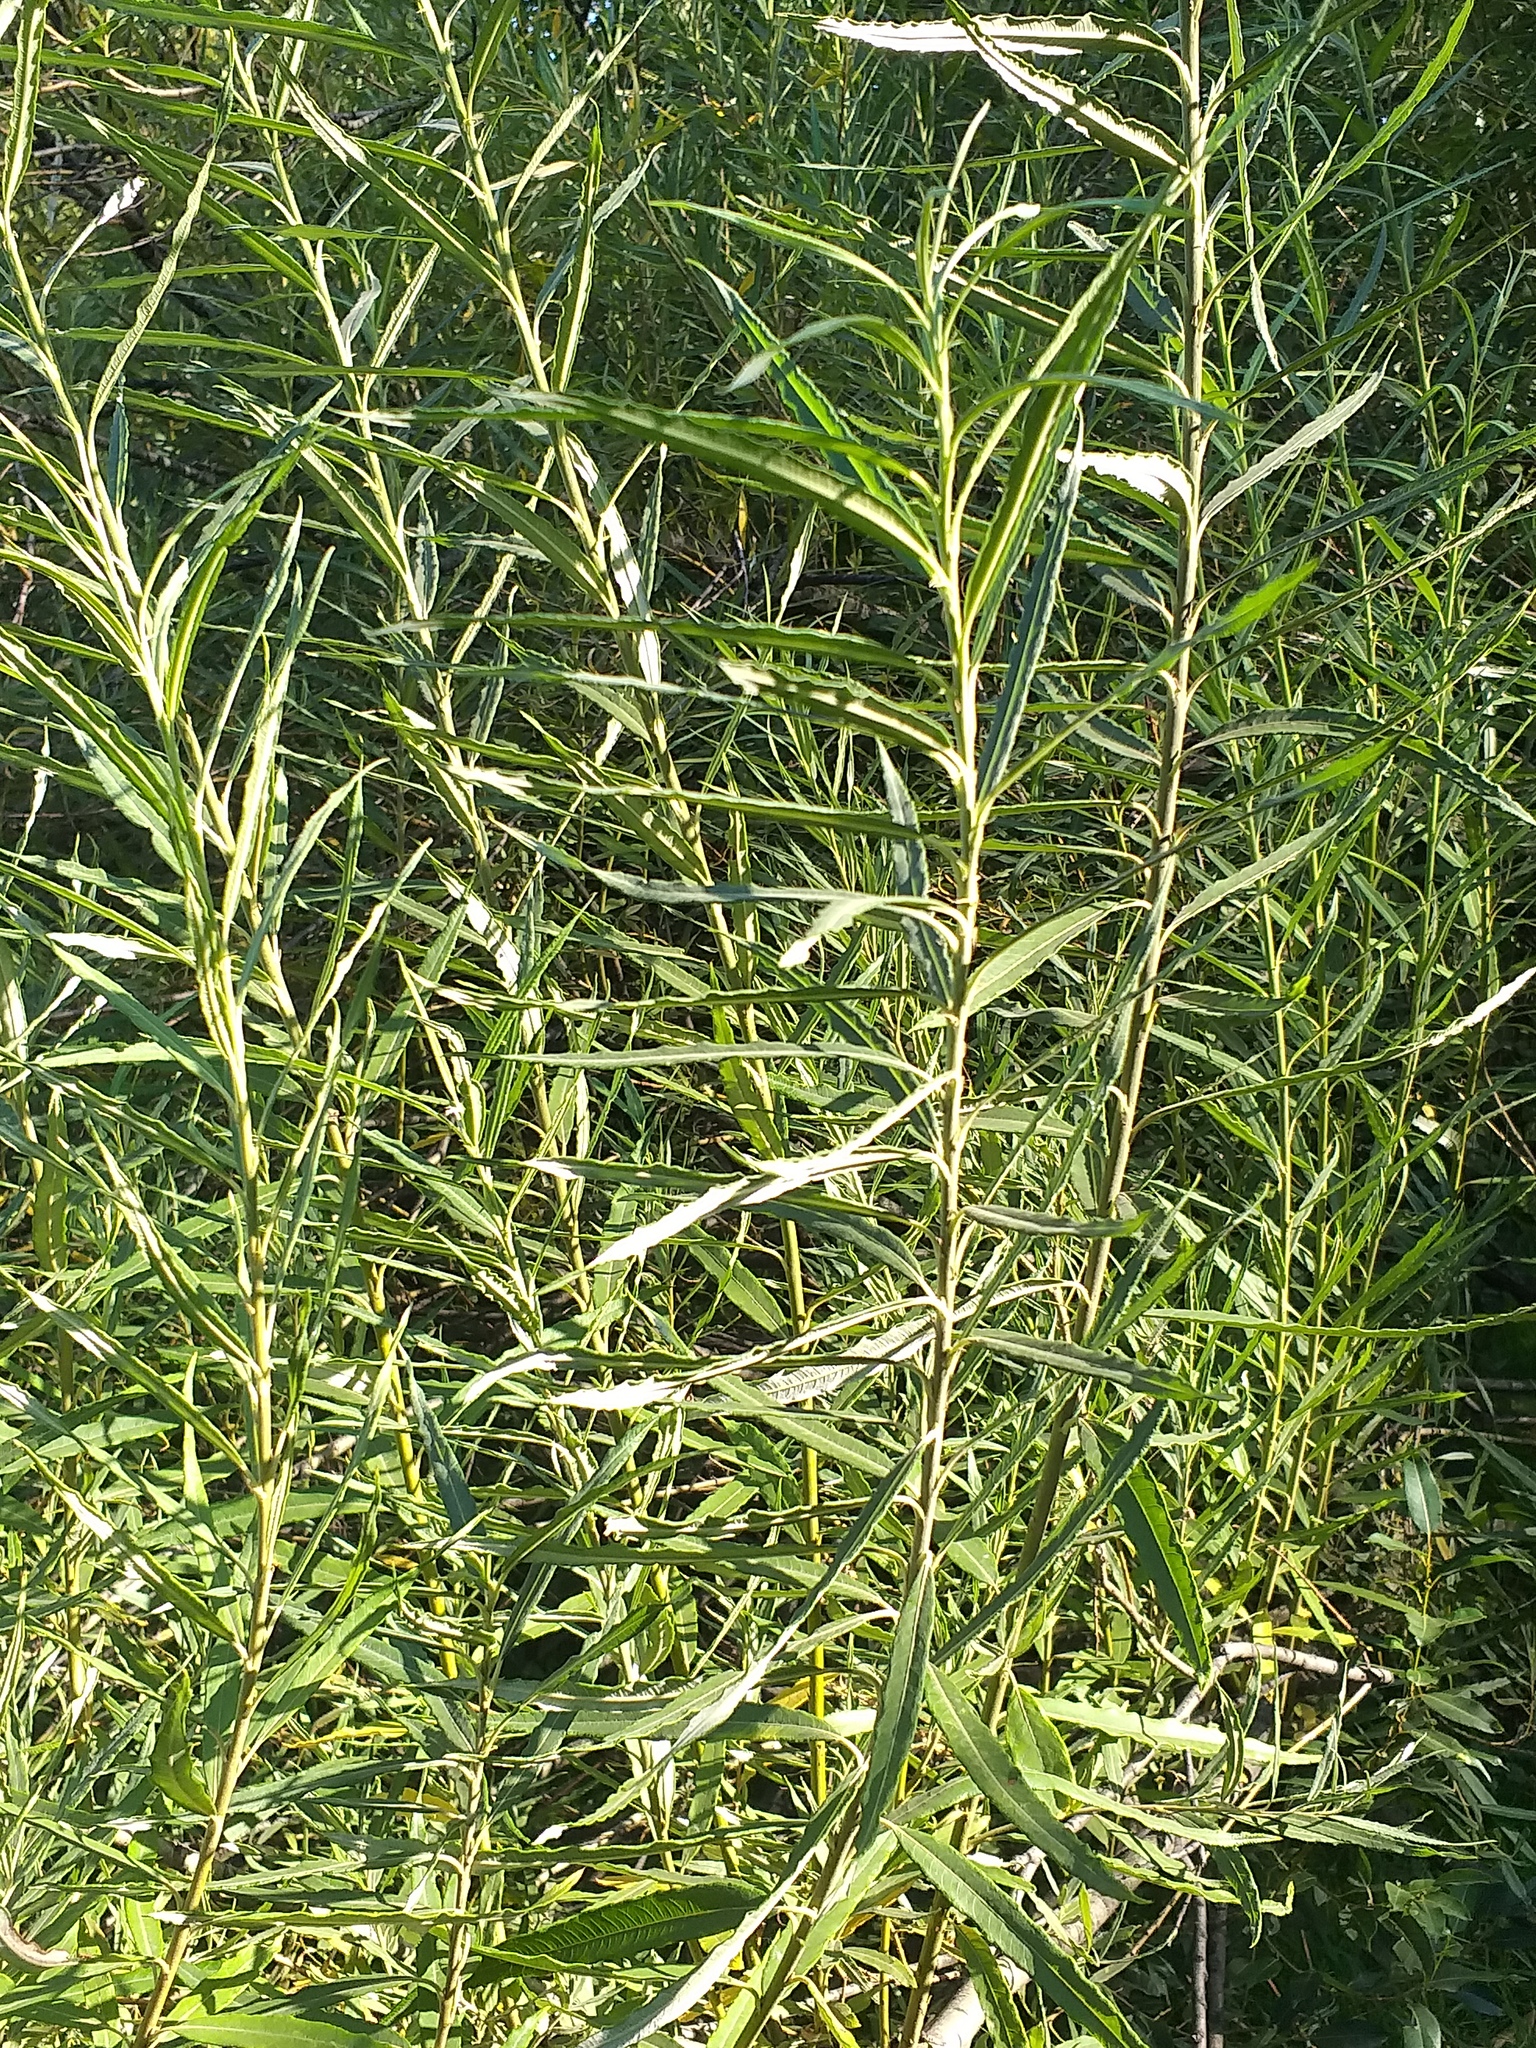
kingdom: Plantae
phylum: Tracheophyta
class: Magnoliopsida
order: Malpighiales
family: Salicaceae
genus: Salix
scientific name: Salix viminalis
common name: Osier
